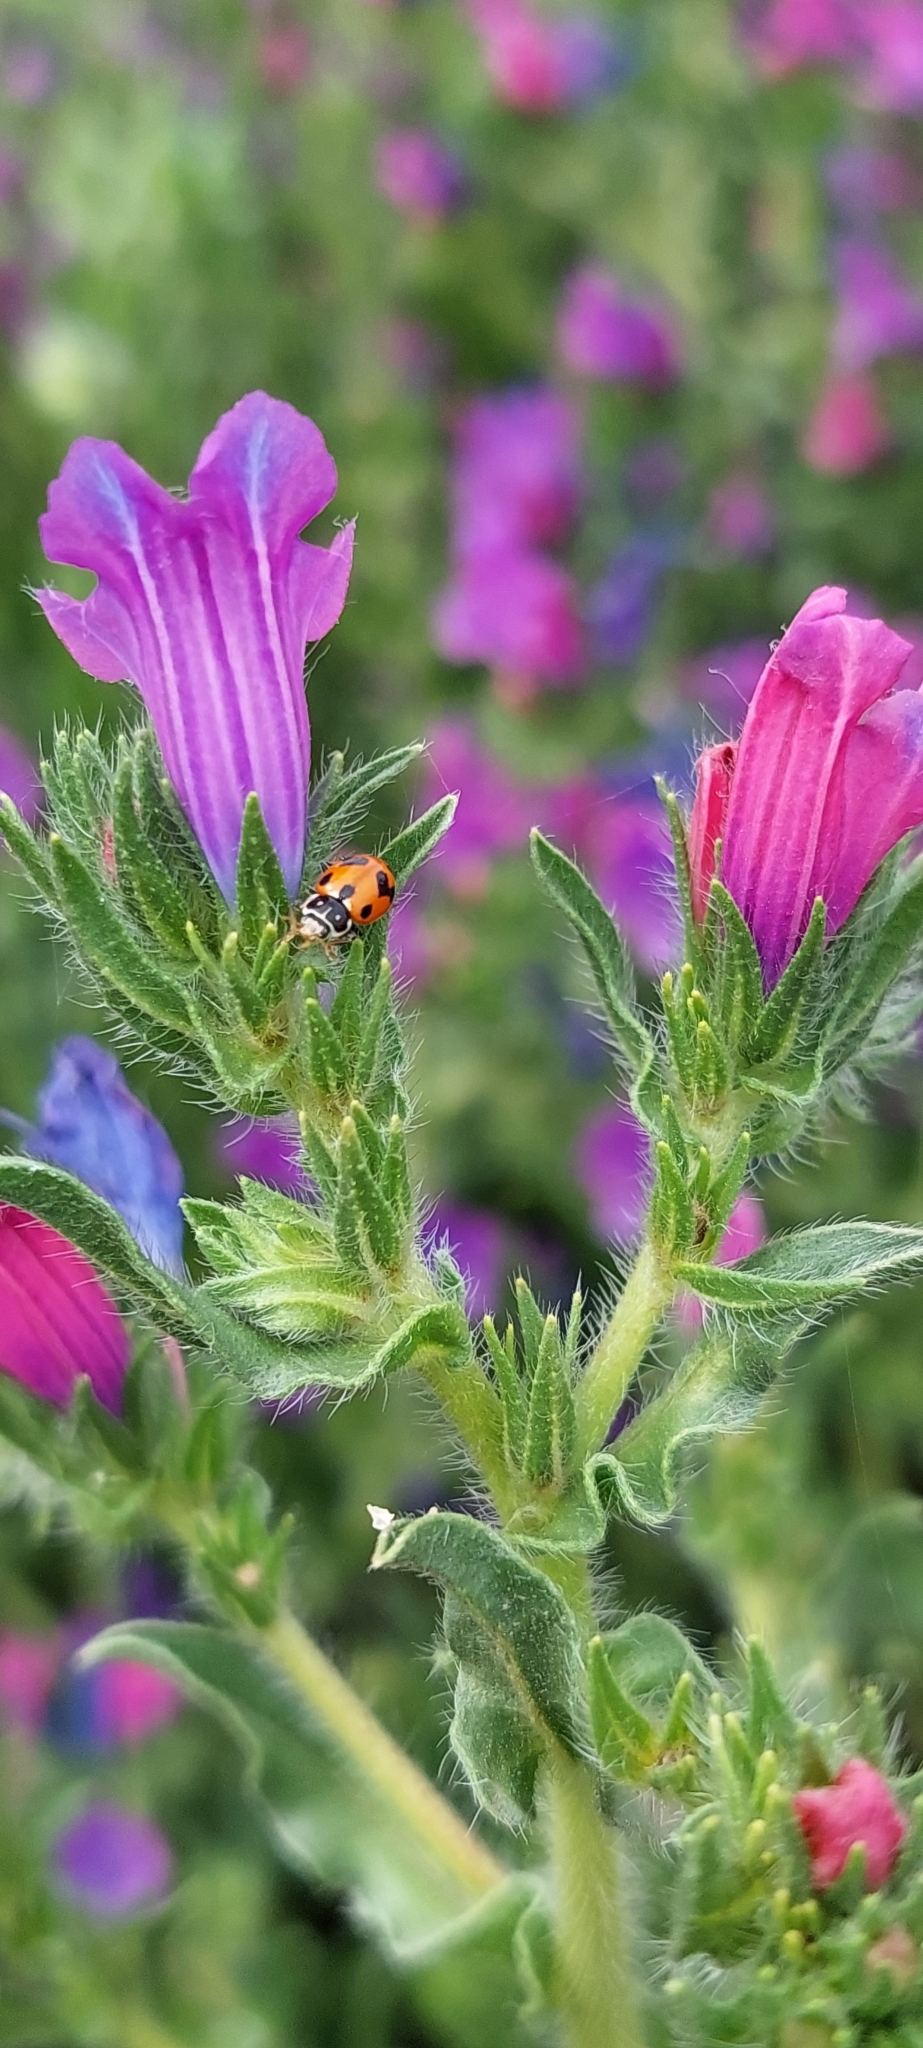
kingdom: Animalia
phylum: Arthropoda
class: Insecta
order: Coleoptera
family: Coccinellidae
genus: Hippodamia
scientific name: Hippodamia variegata
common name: Ladybird beetle
